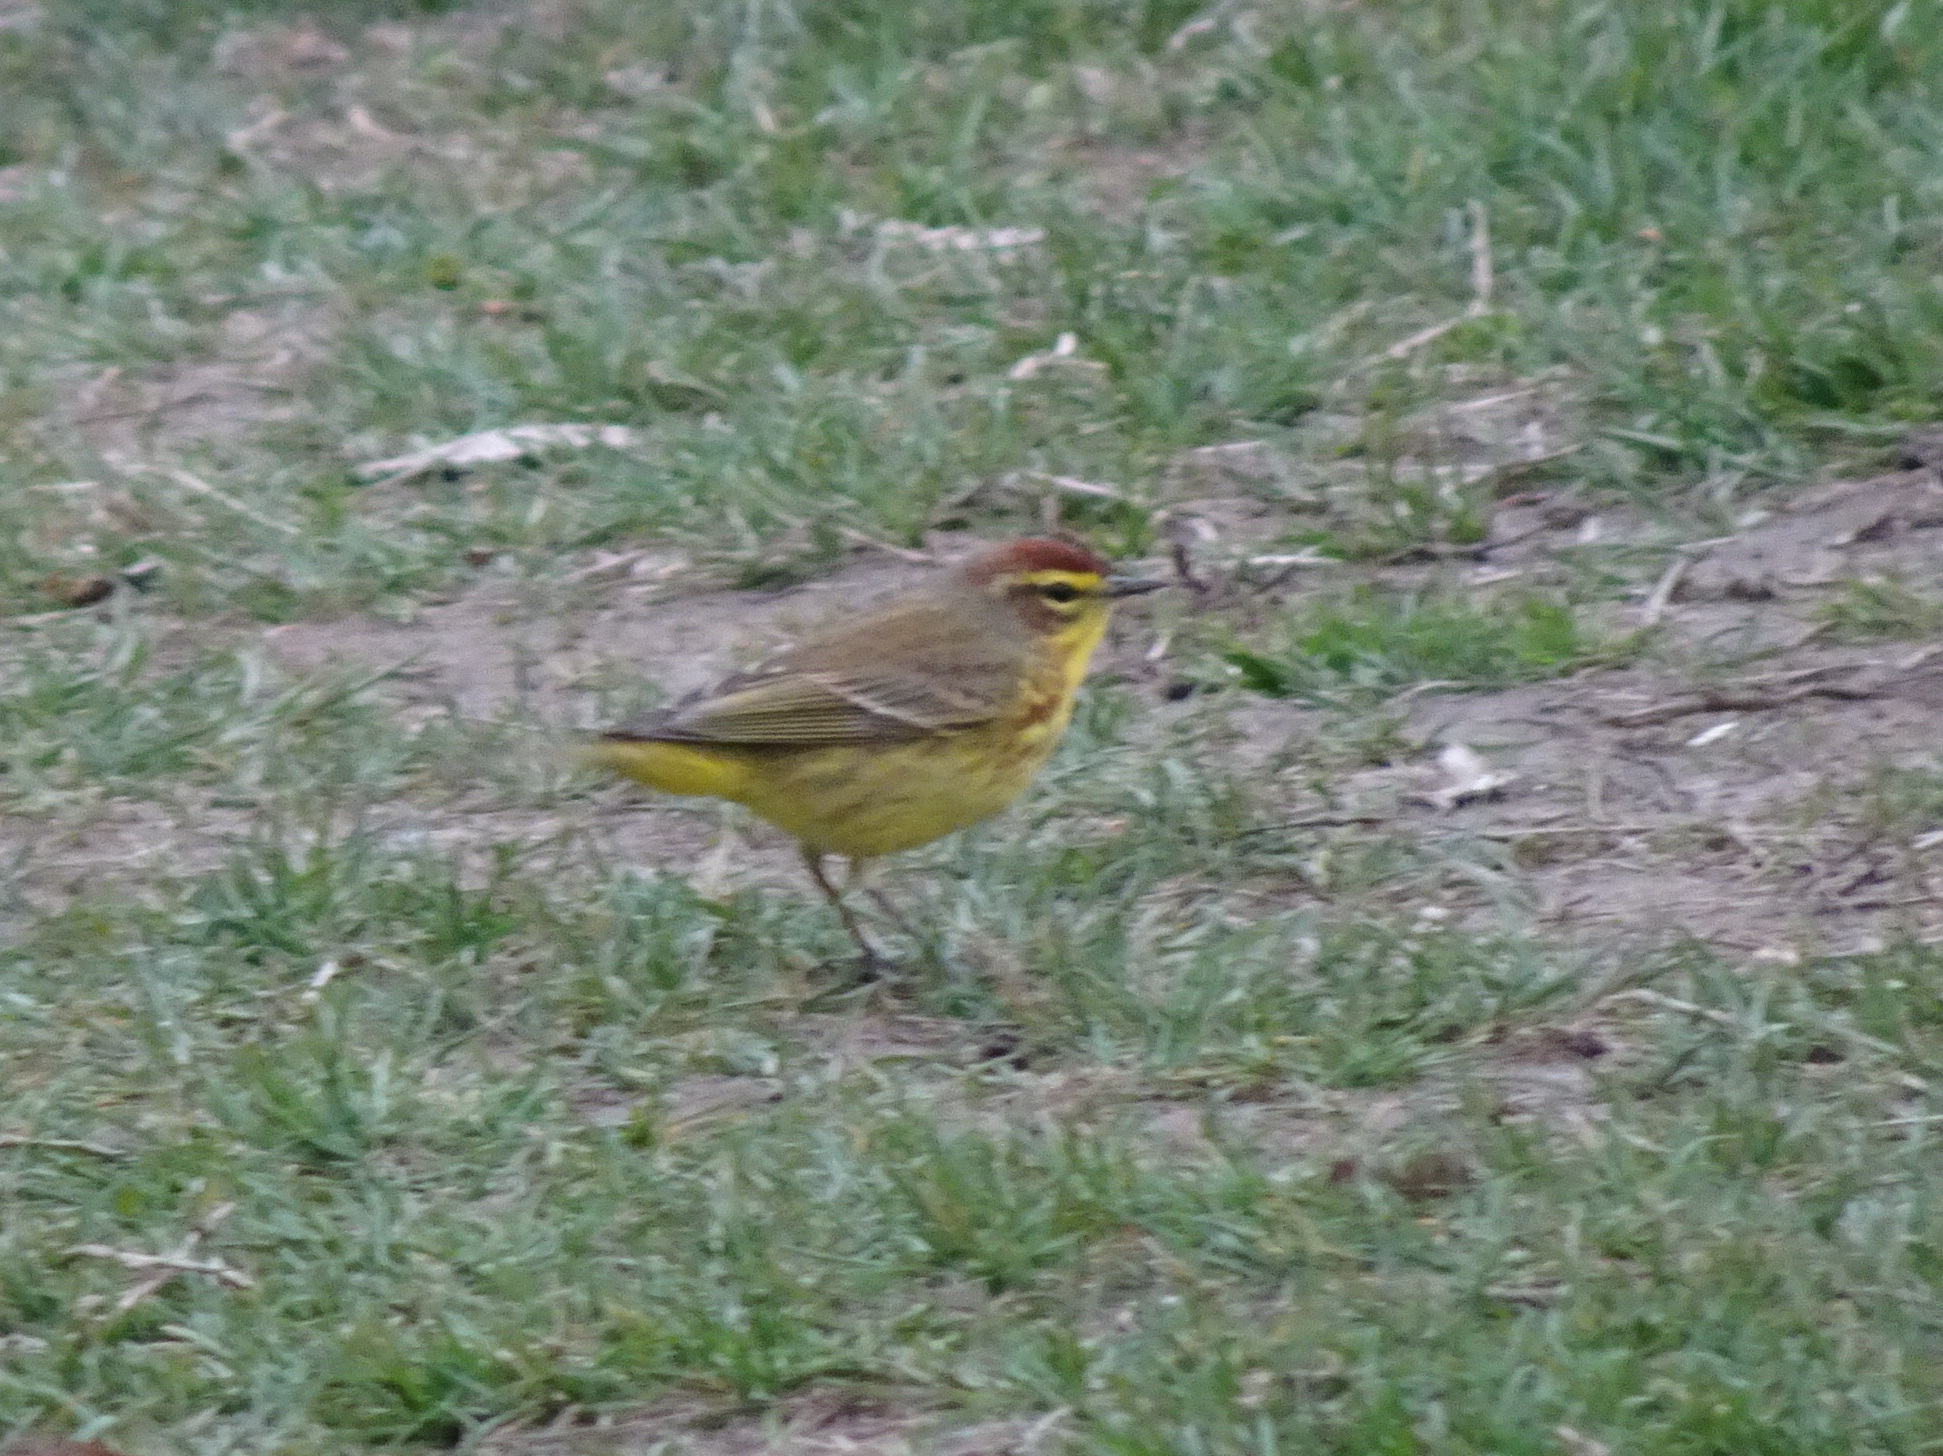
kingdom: Animalia
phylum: Chordata
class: Aves
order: Passeriformes
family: Parulidae
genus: Setophaga
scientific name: Setophaga palmarum
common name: Palm warbler
